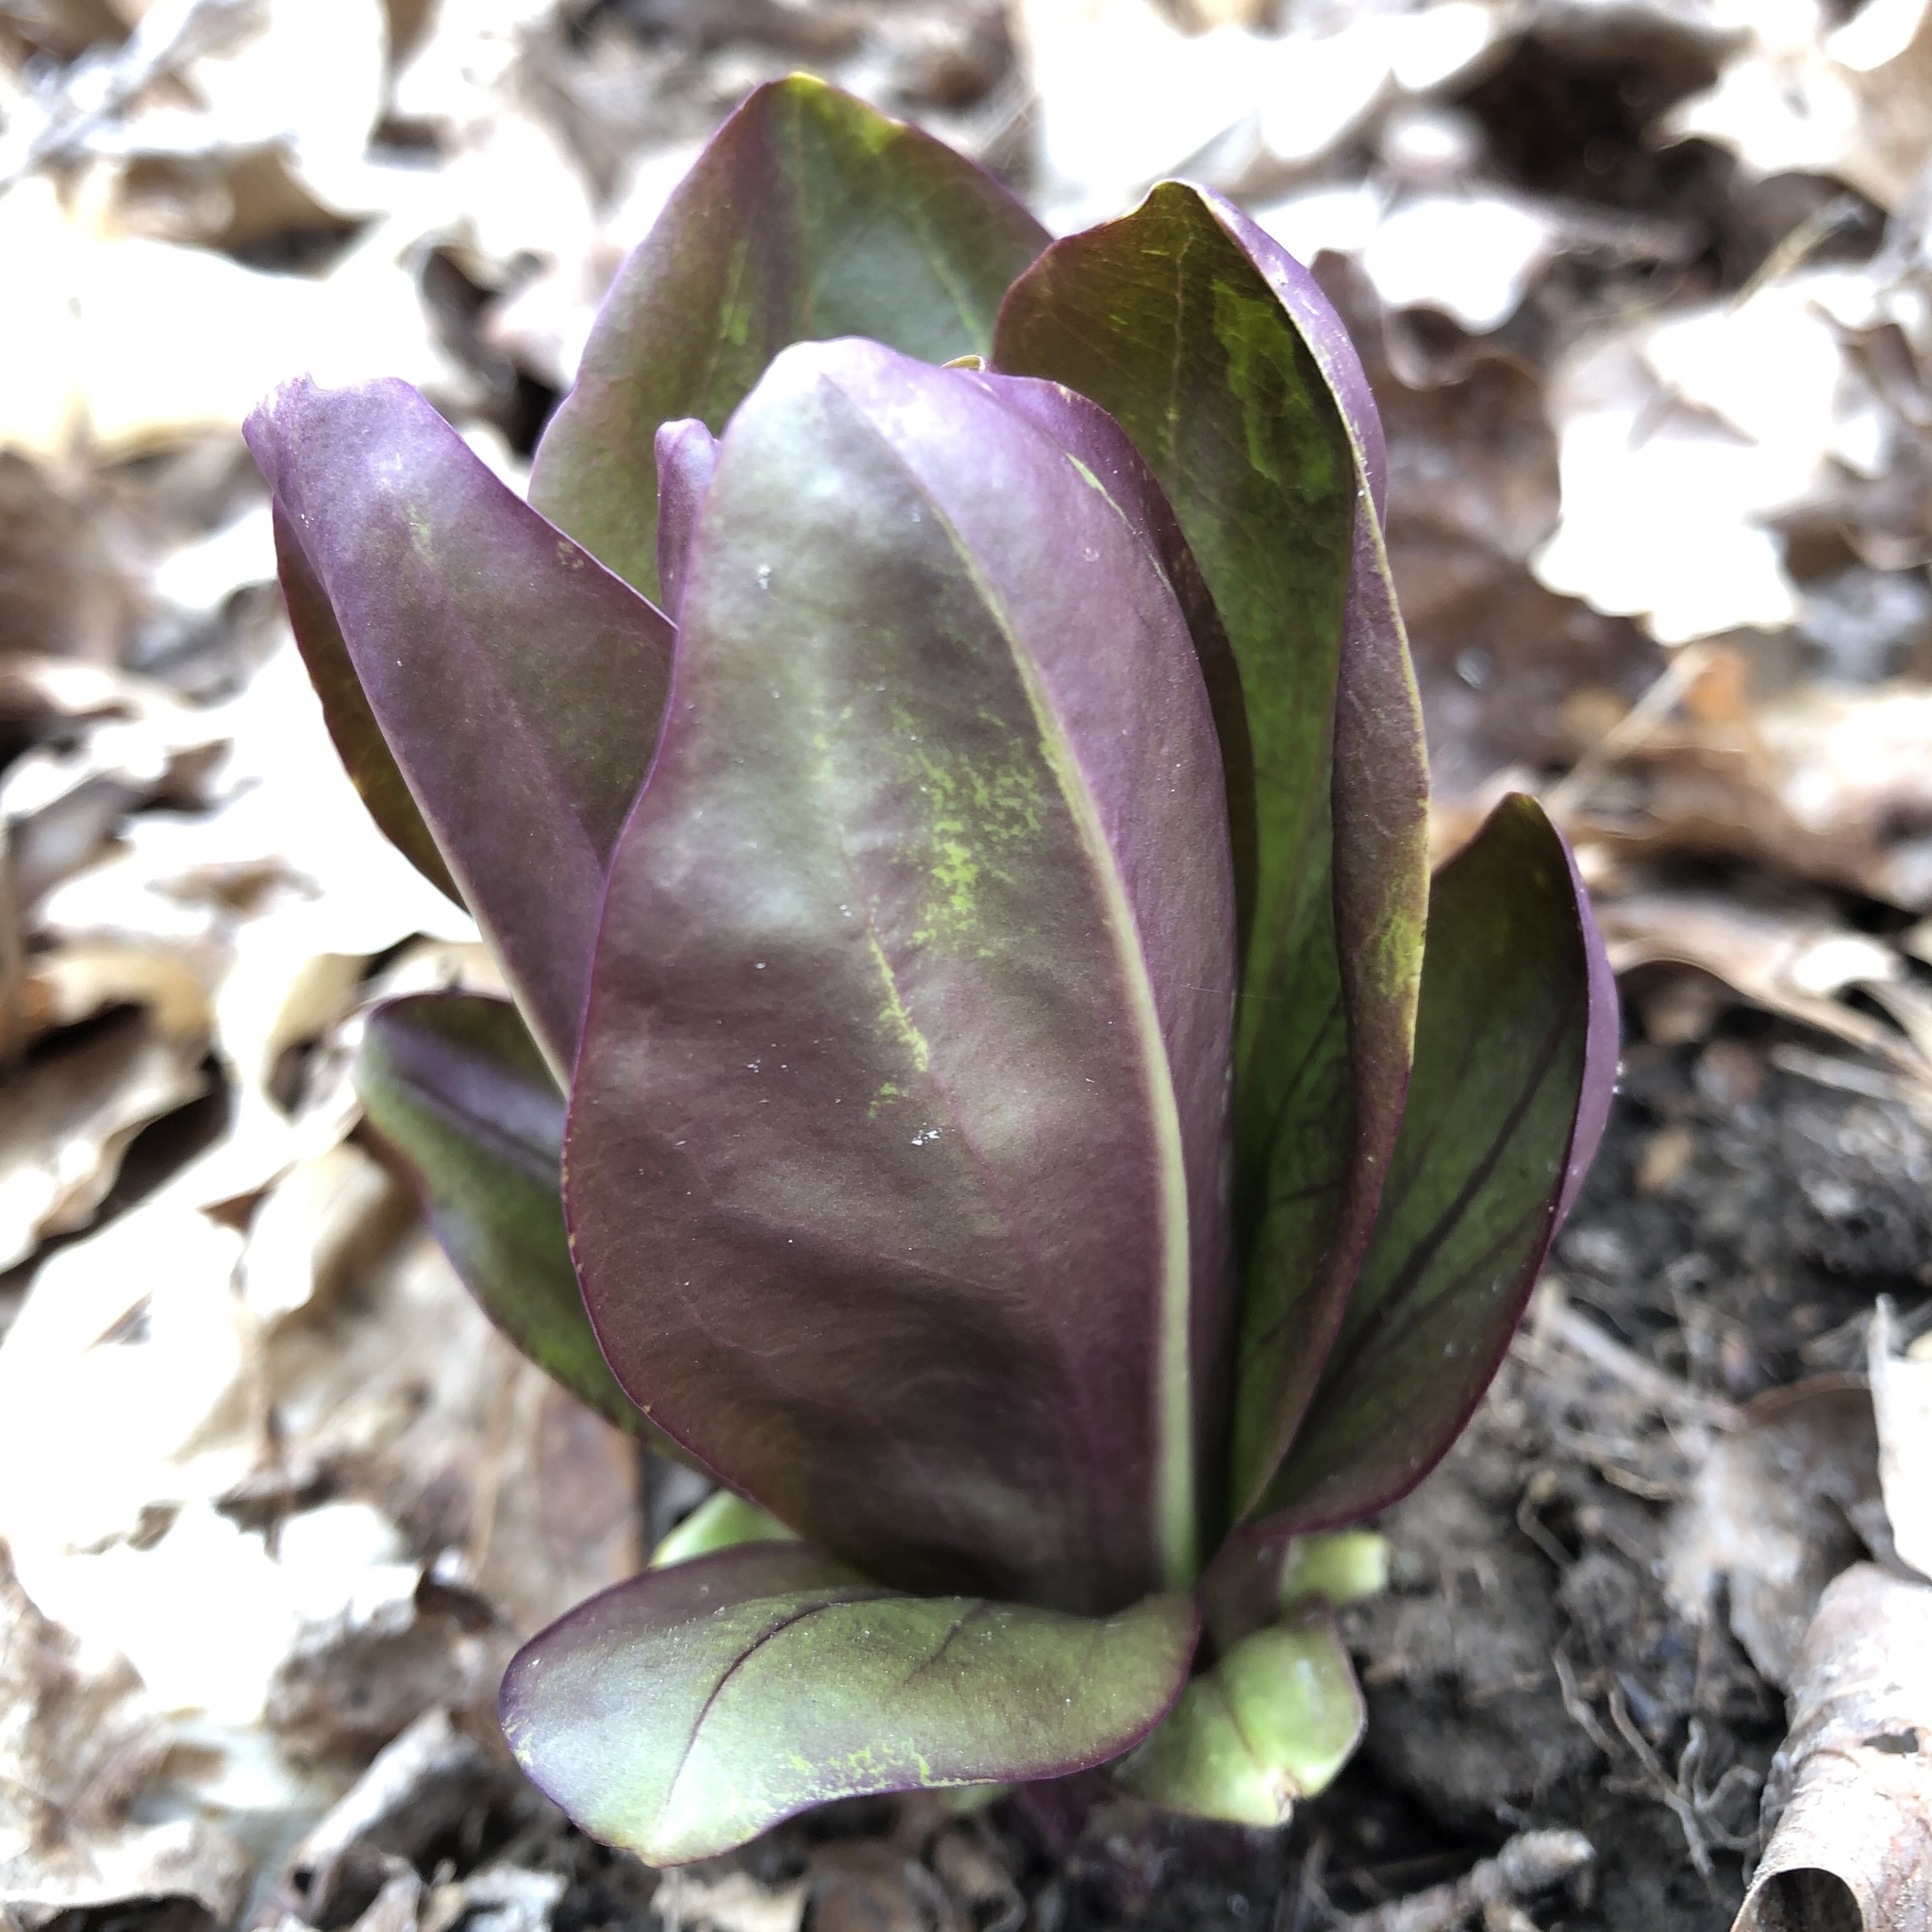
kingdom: Plantae
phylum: Tracheophyta
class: Magnoliopsida
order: Gentianales
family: Gentianaceae
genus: Frasera
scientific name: Frasera caroliniensis
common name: American columbo
